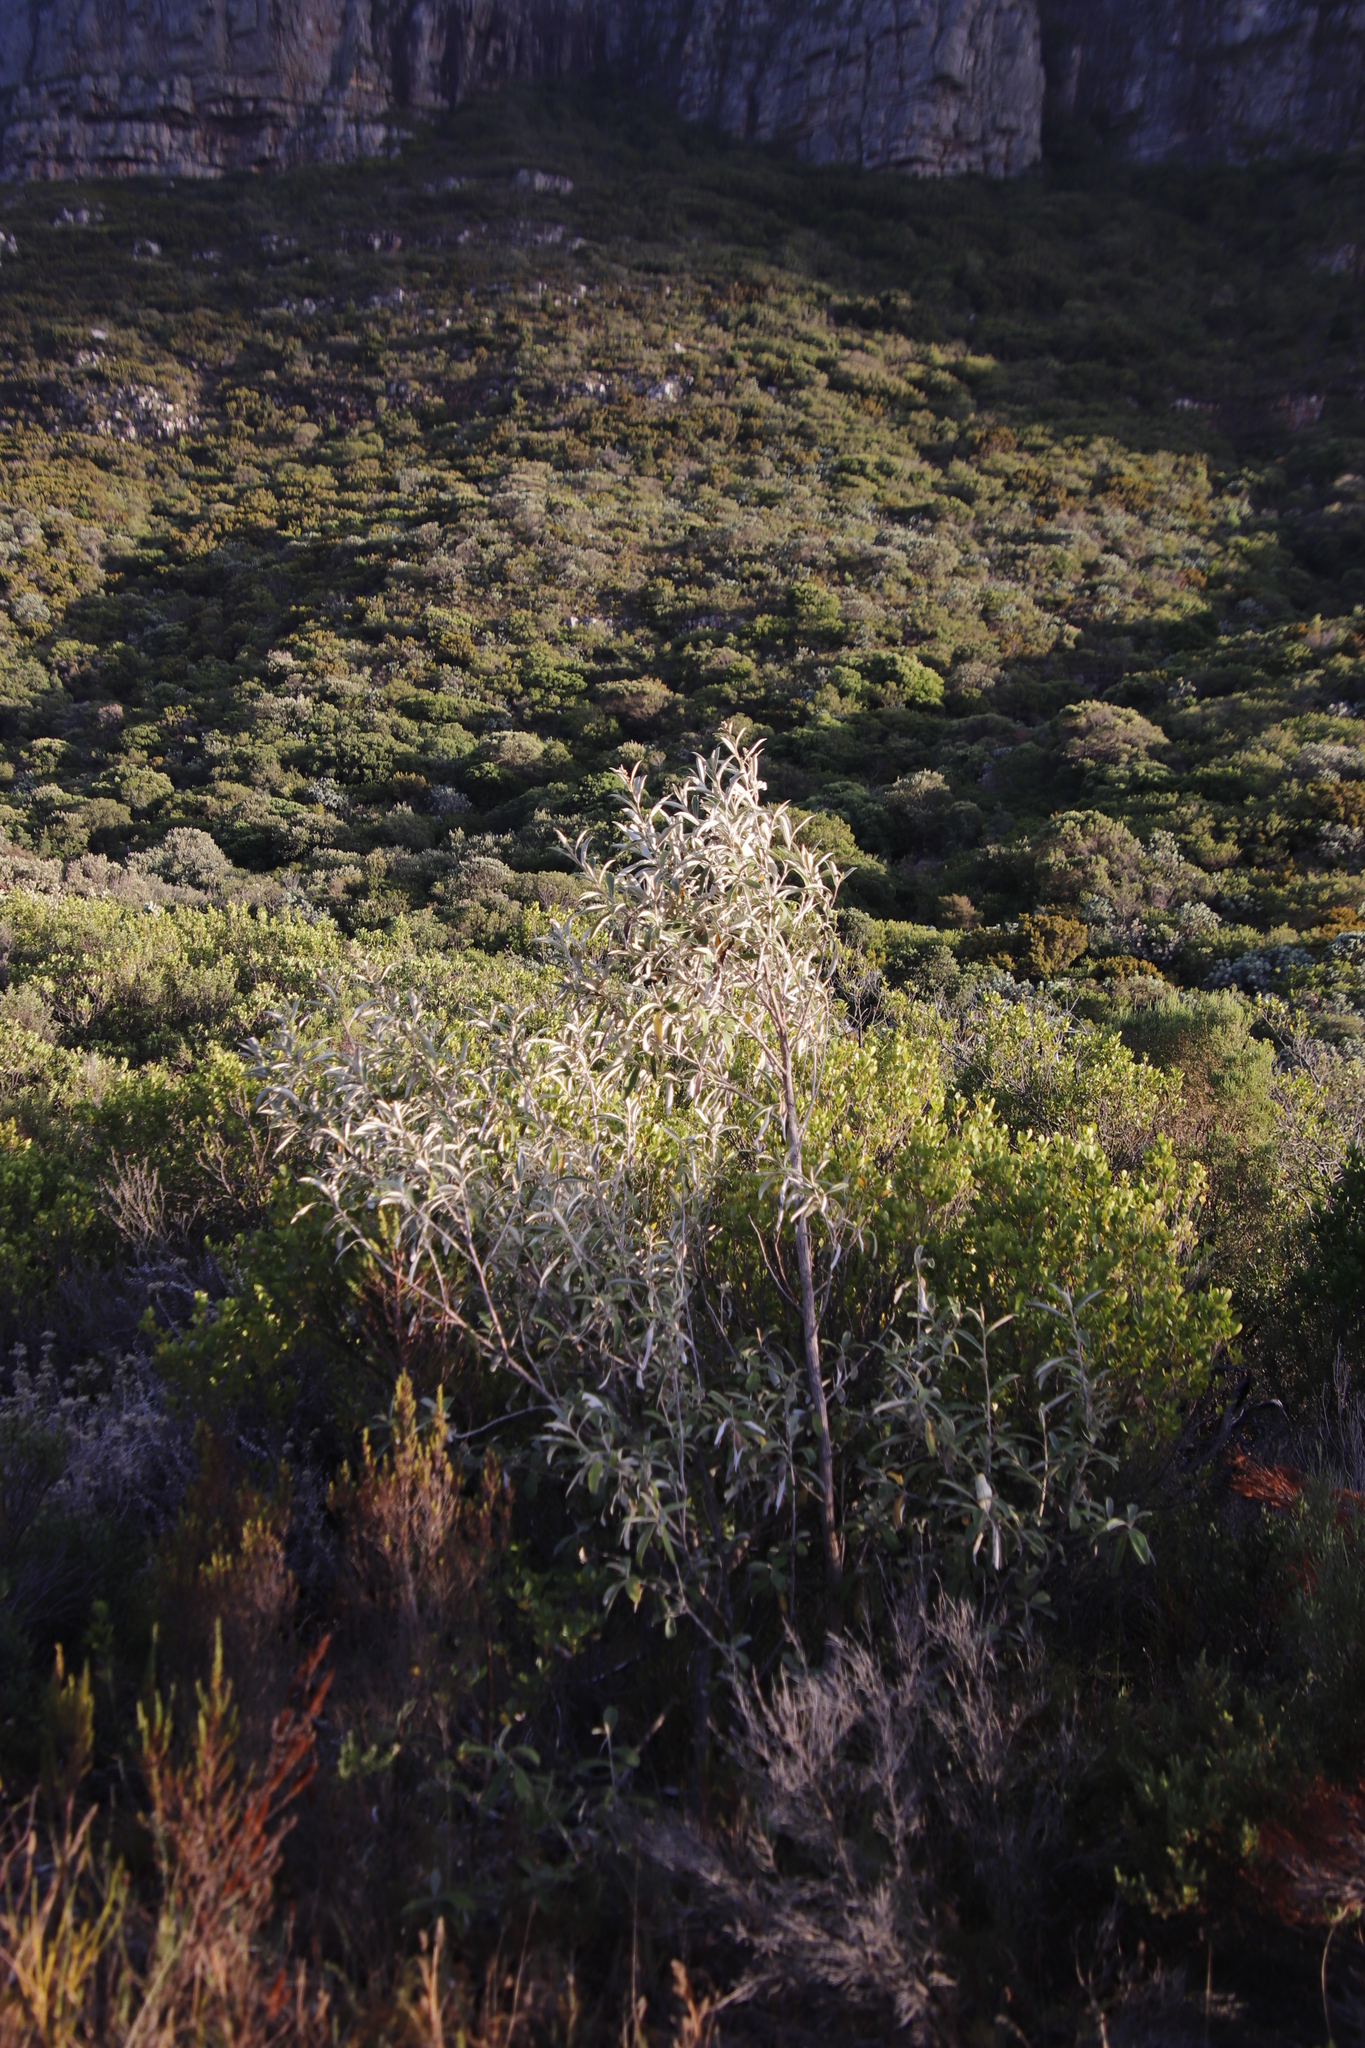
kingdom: Plantae
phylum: Tracheophyta
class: Magnoliopsida
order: Asterales
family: Asteraceae
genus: Tarchonanthus
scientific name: Tarchonanthus littoralis
